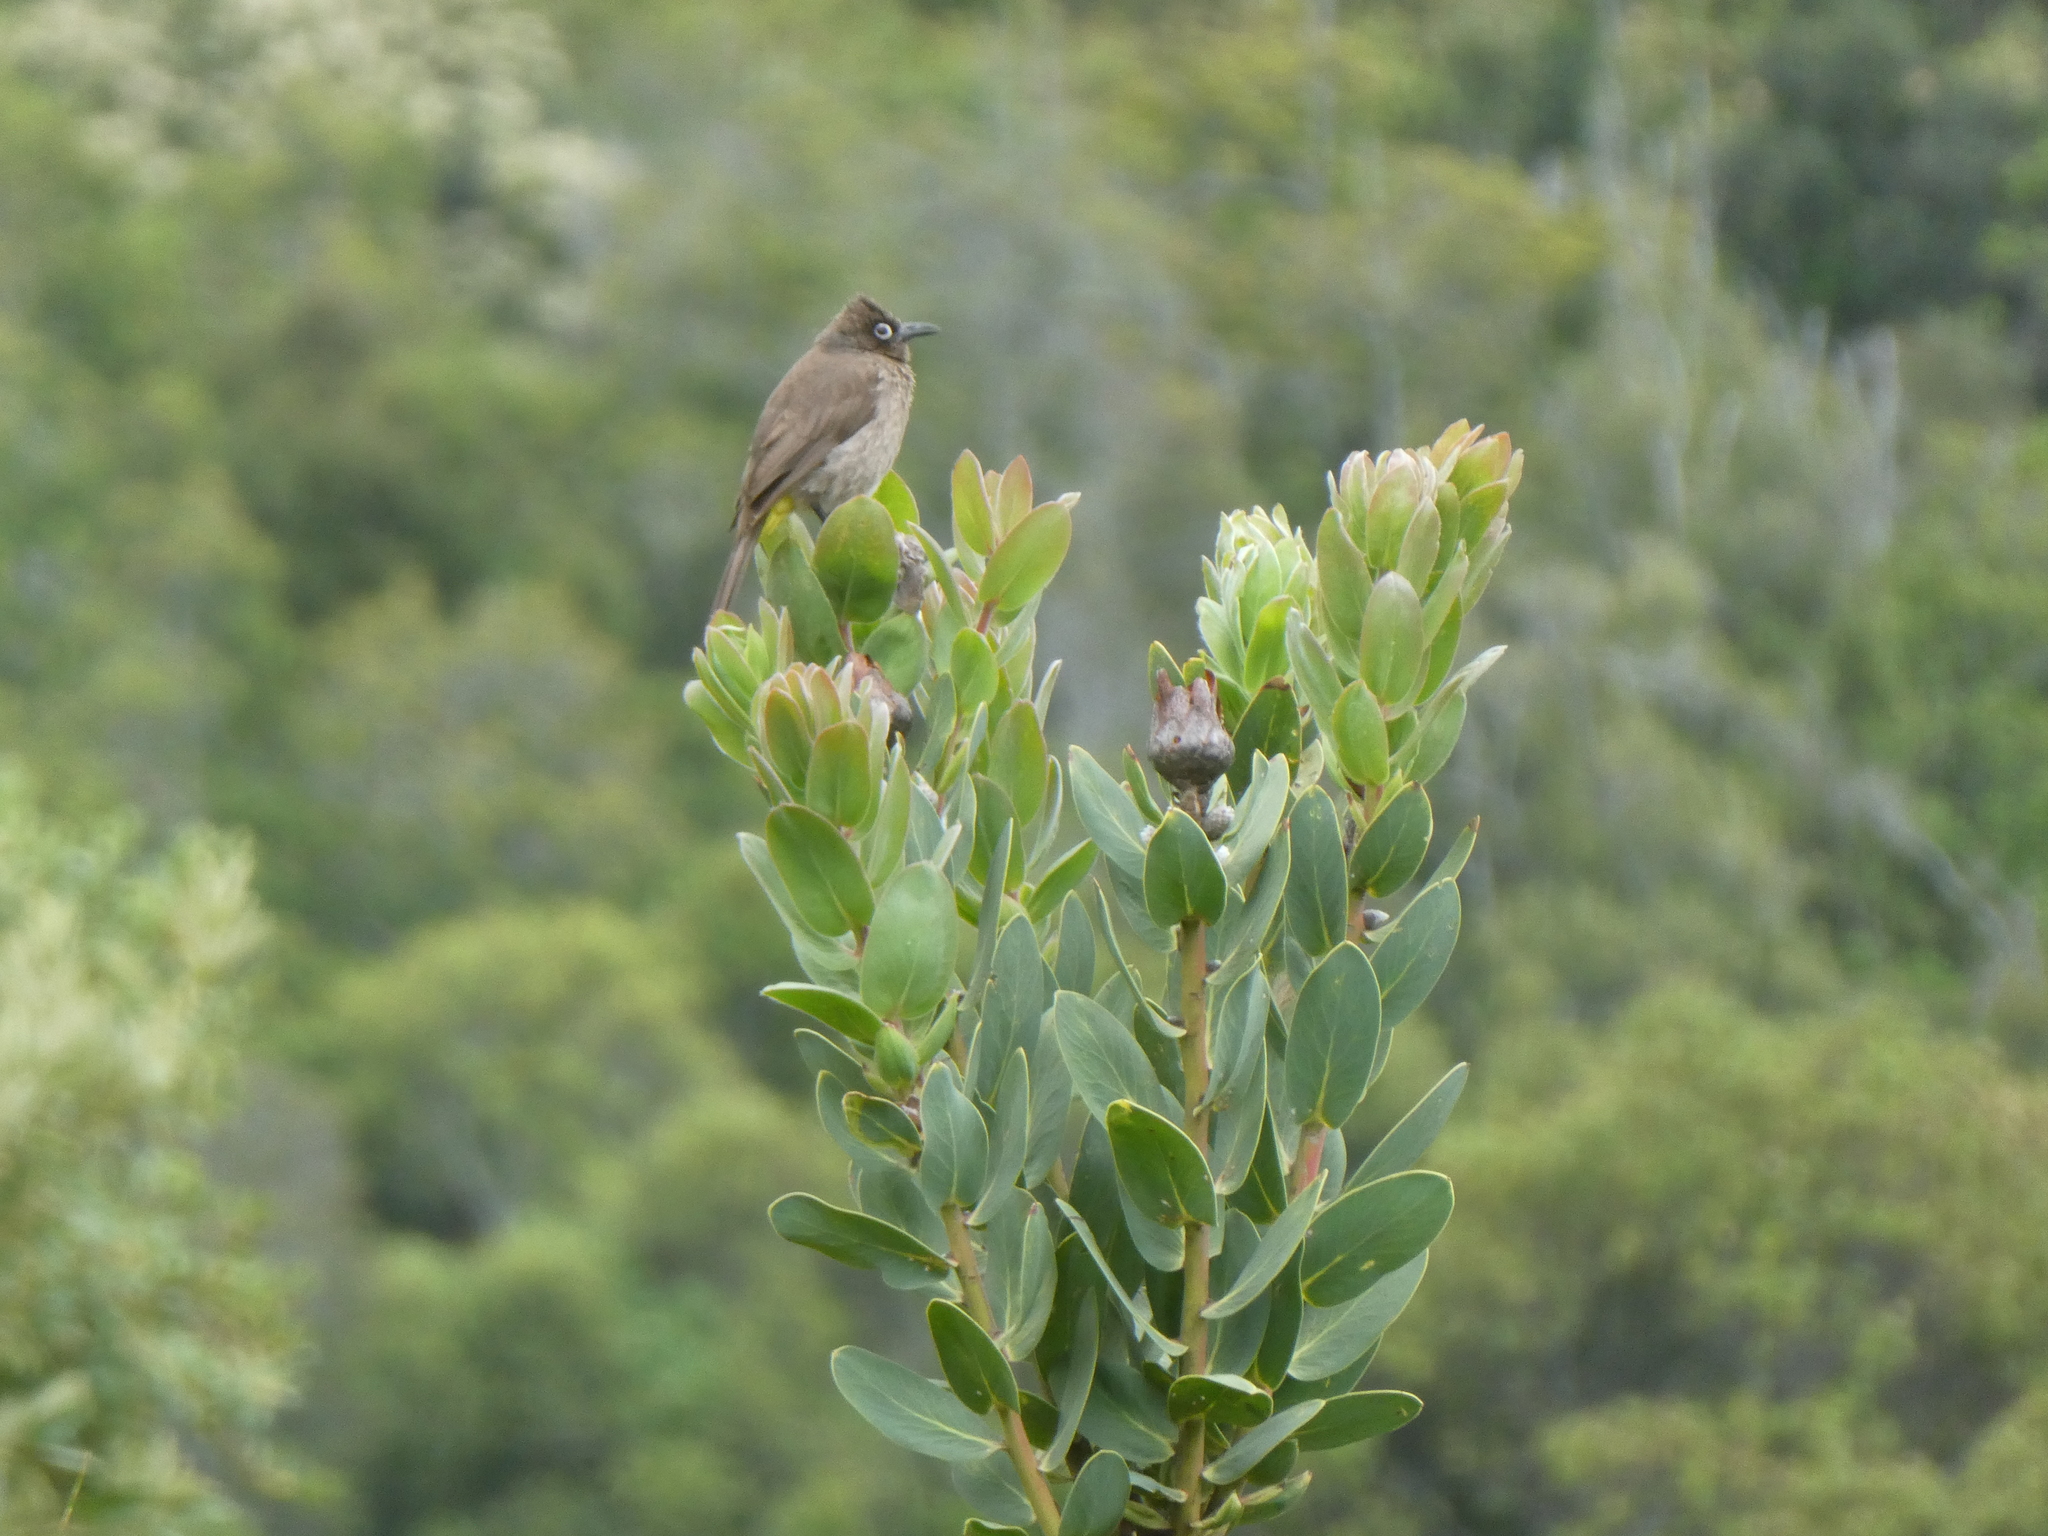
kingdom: Animalia
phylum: Chordata
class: Aves
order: Passeriformes
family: Pycnonotidae
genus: Pycnonotus
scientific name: Pycnonotus capensis
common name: Cape bulbul
